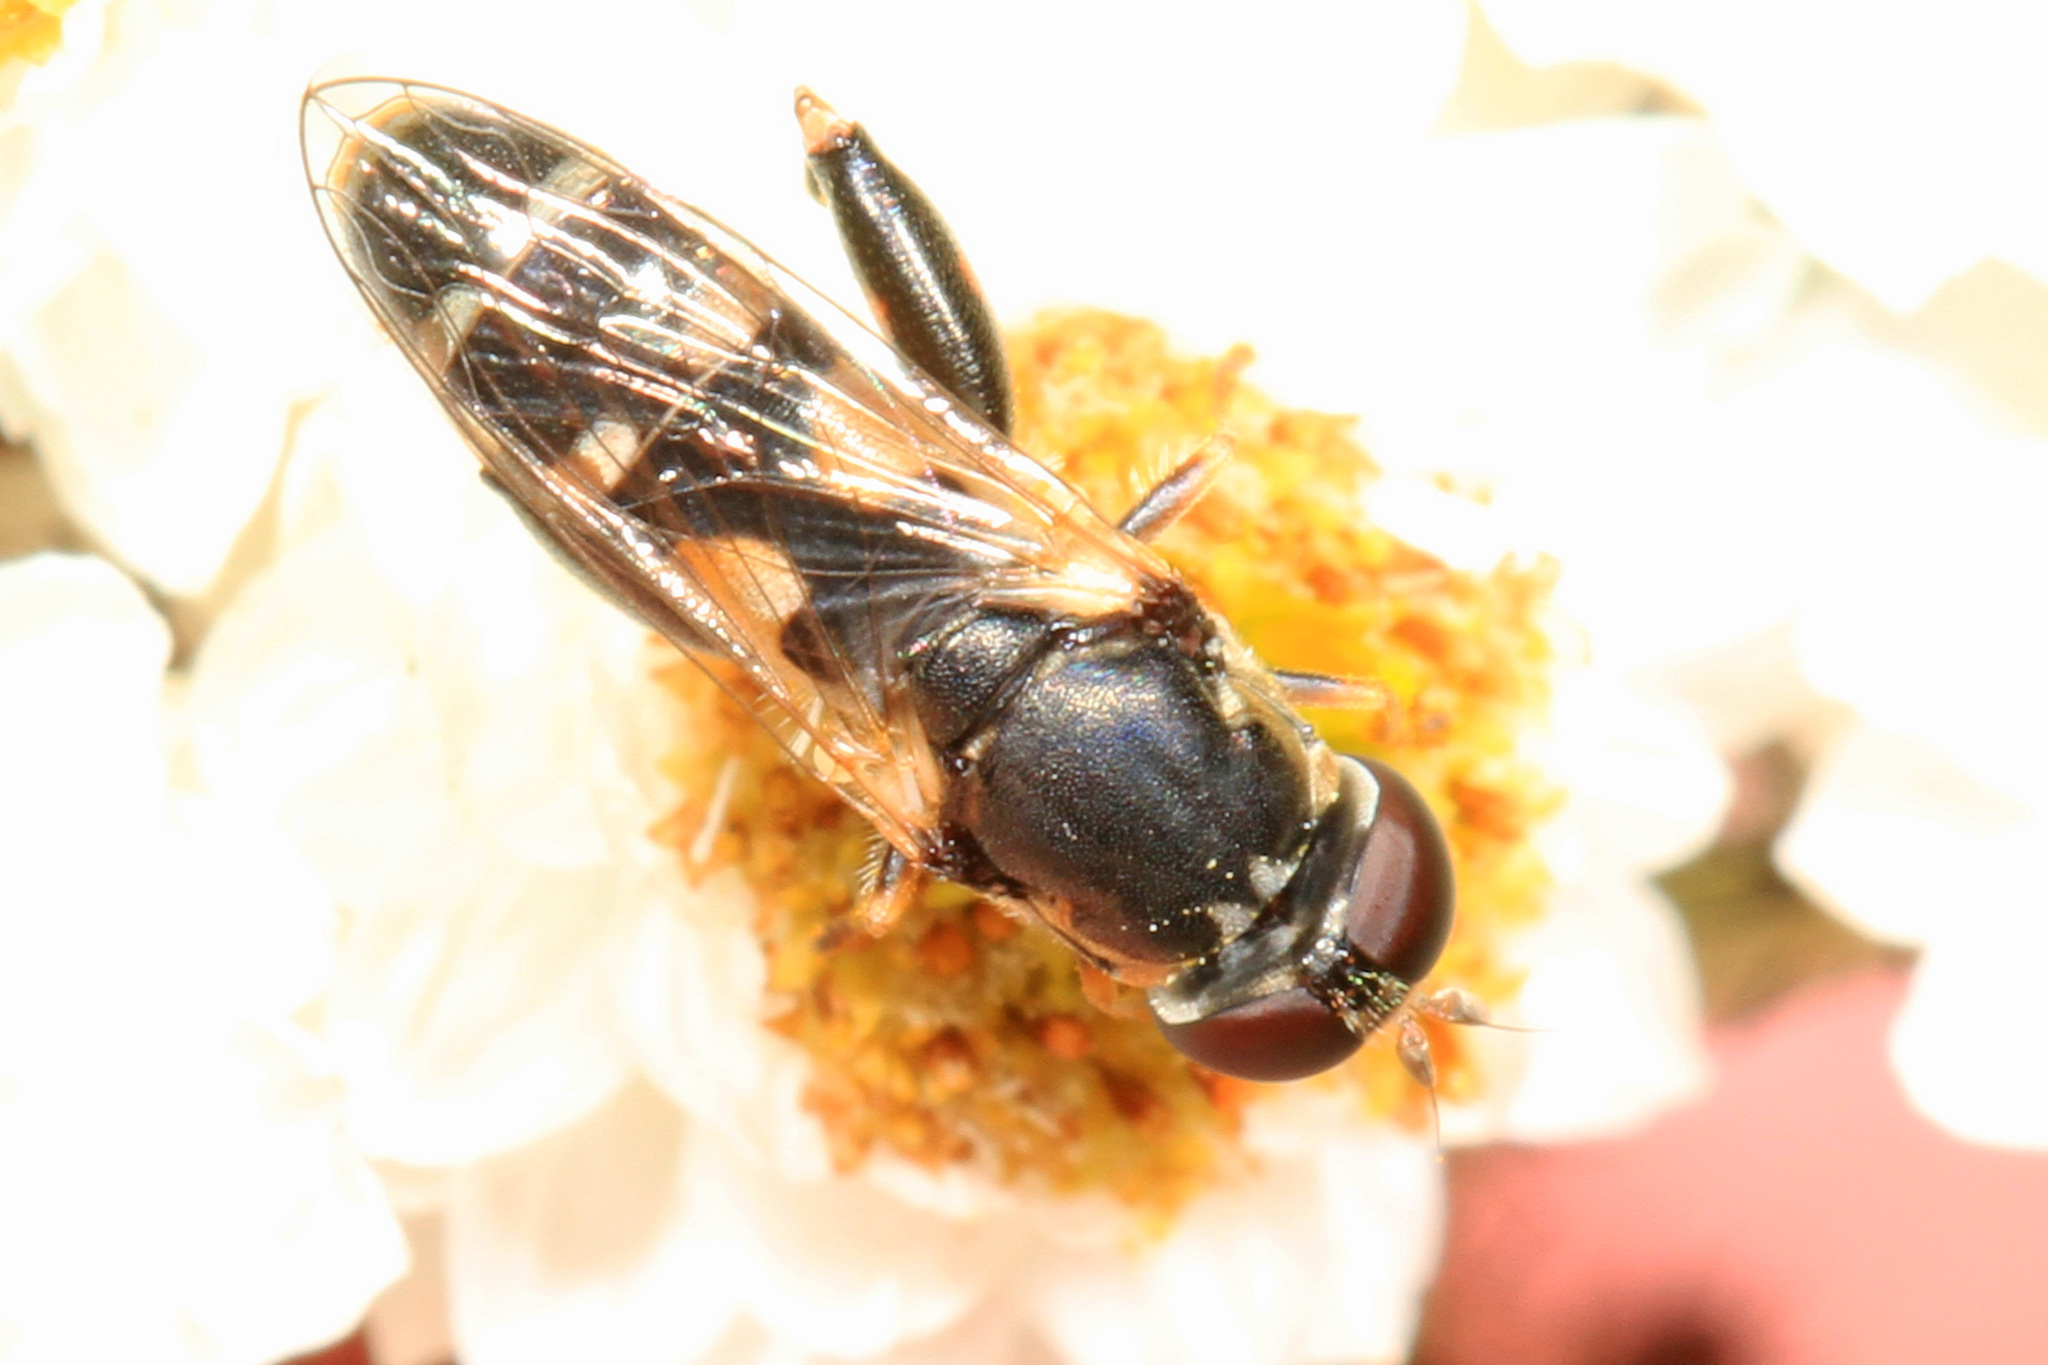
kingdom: Animalia
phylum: Arthropoda
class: Insecta
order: Diptera
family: Syrphidae
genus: Syritta
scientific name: Syritta pipiens
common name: Hover fly
